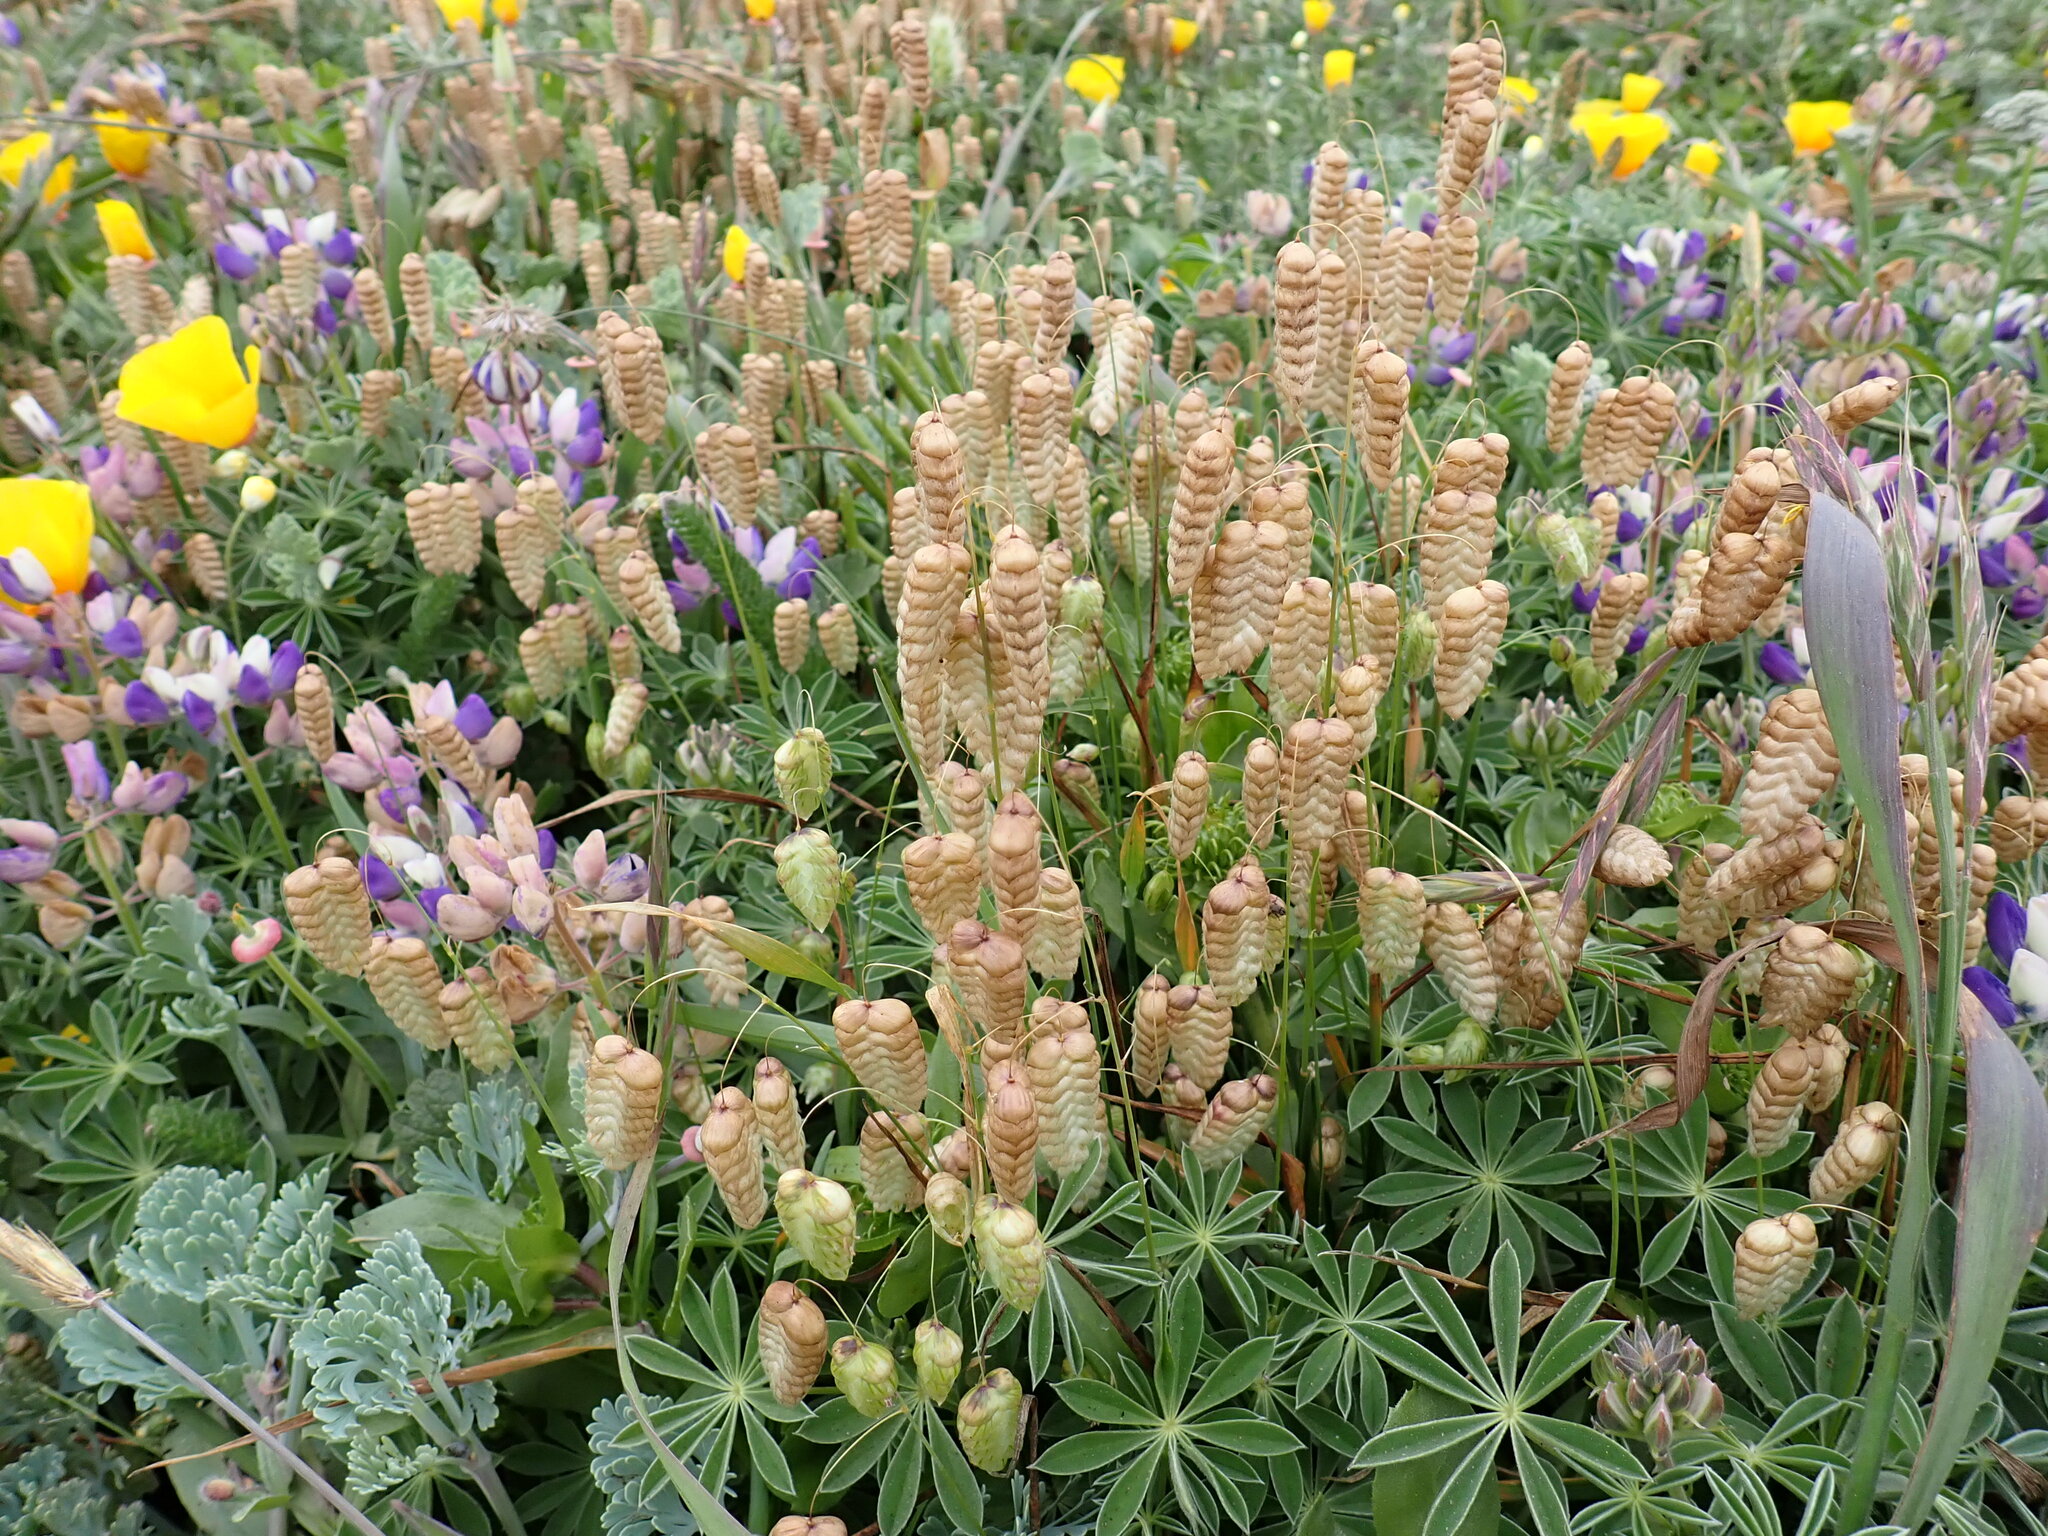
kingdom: Plantae
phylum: Tracheophyta
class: Liliopsida
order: Poales
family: Poaceae
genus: Briza
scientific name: Briza maxima
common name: Big quakinggrass
